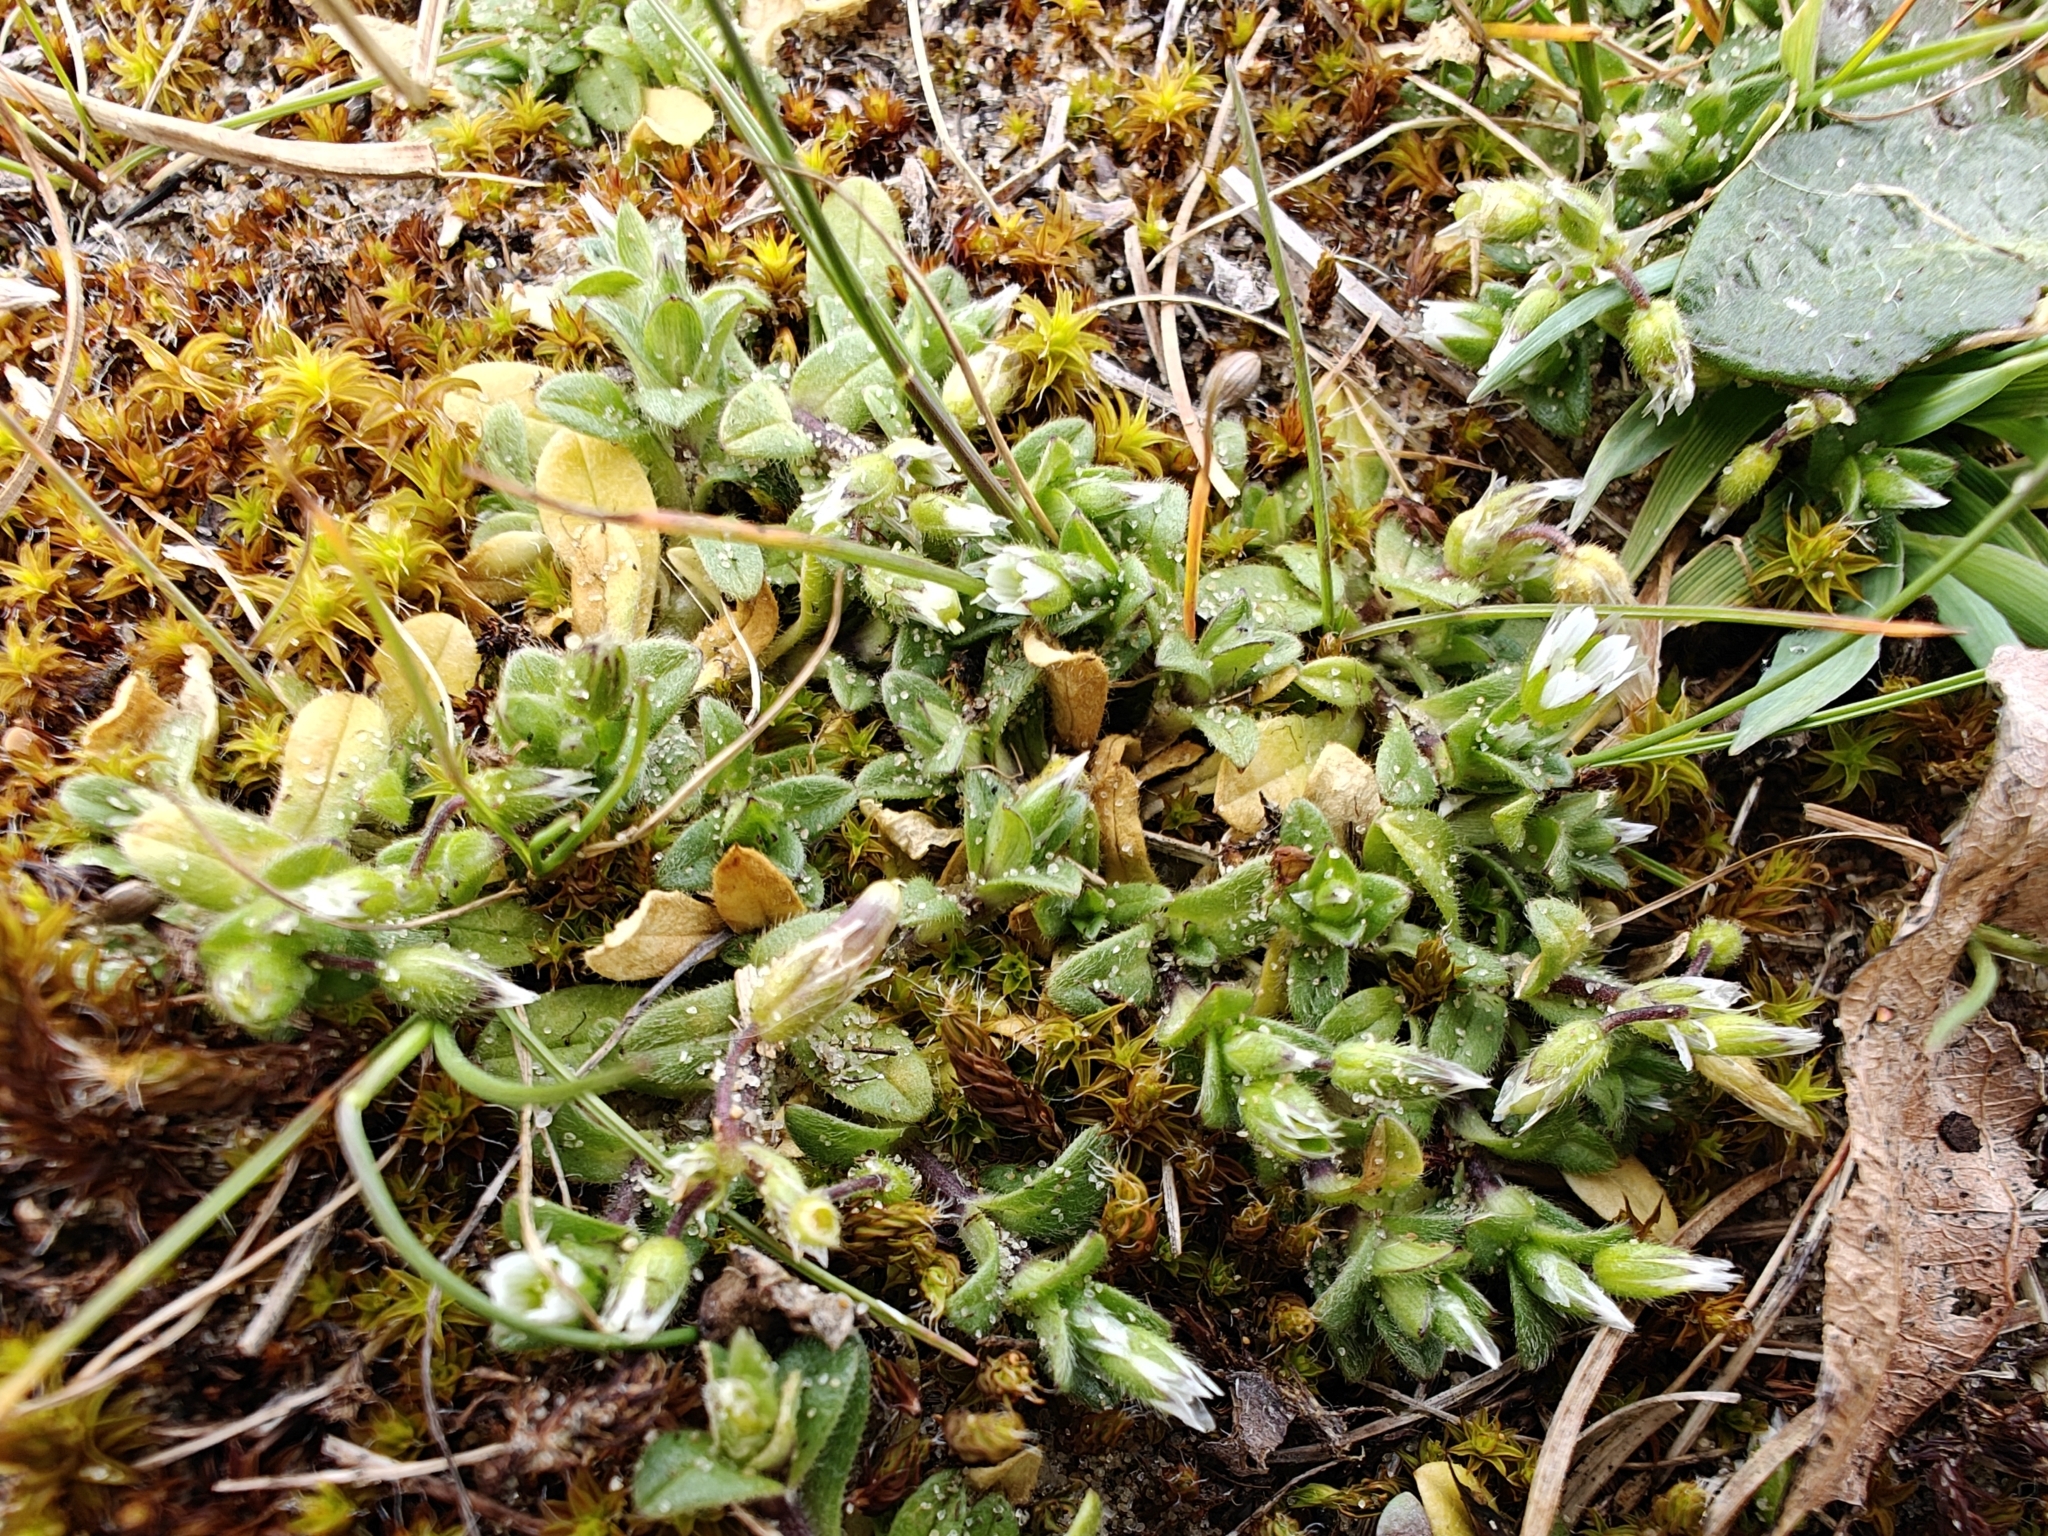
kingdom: Plantae
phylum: Tracheophyta
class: Magnoliopsida
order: Caryophyllales
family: Caryophyllaceae
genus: Cerastium
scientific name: Cerastium semidecandrum
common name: Little mouse-ear
